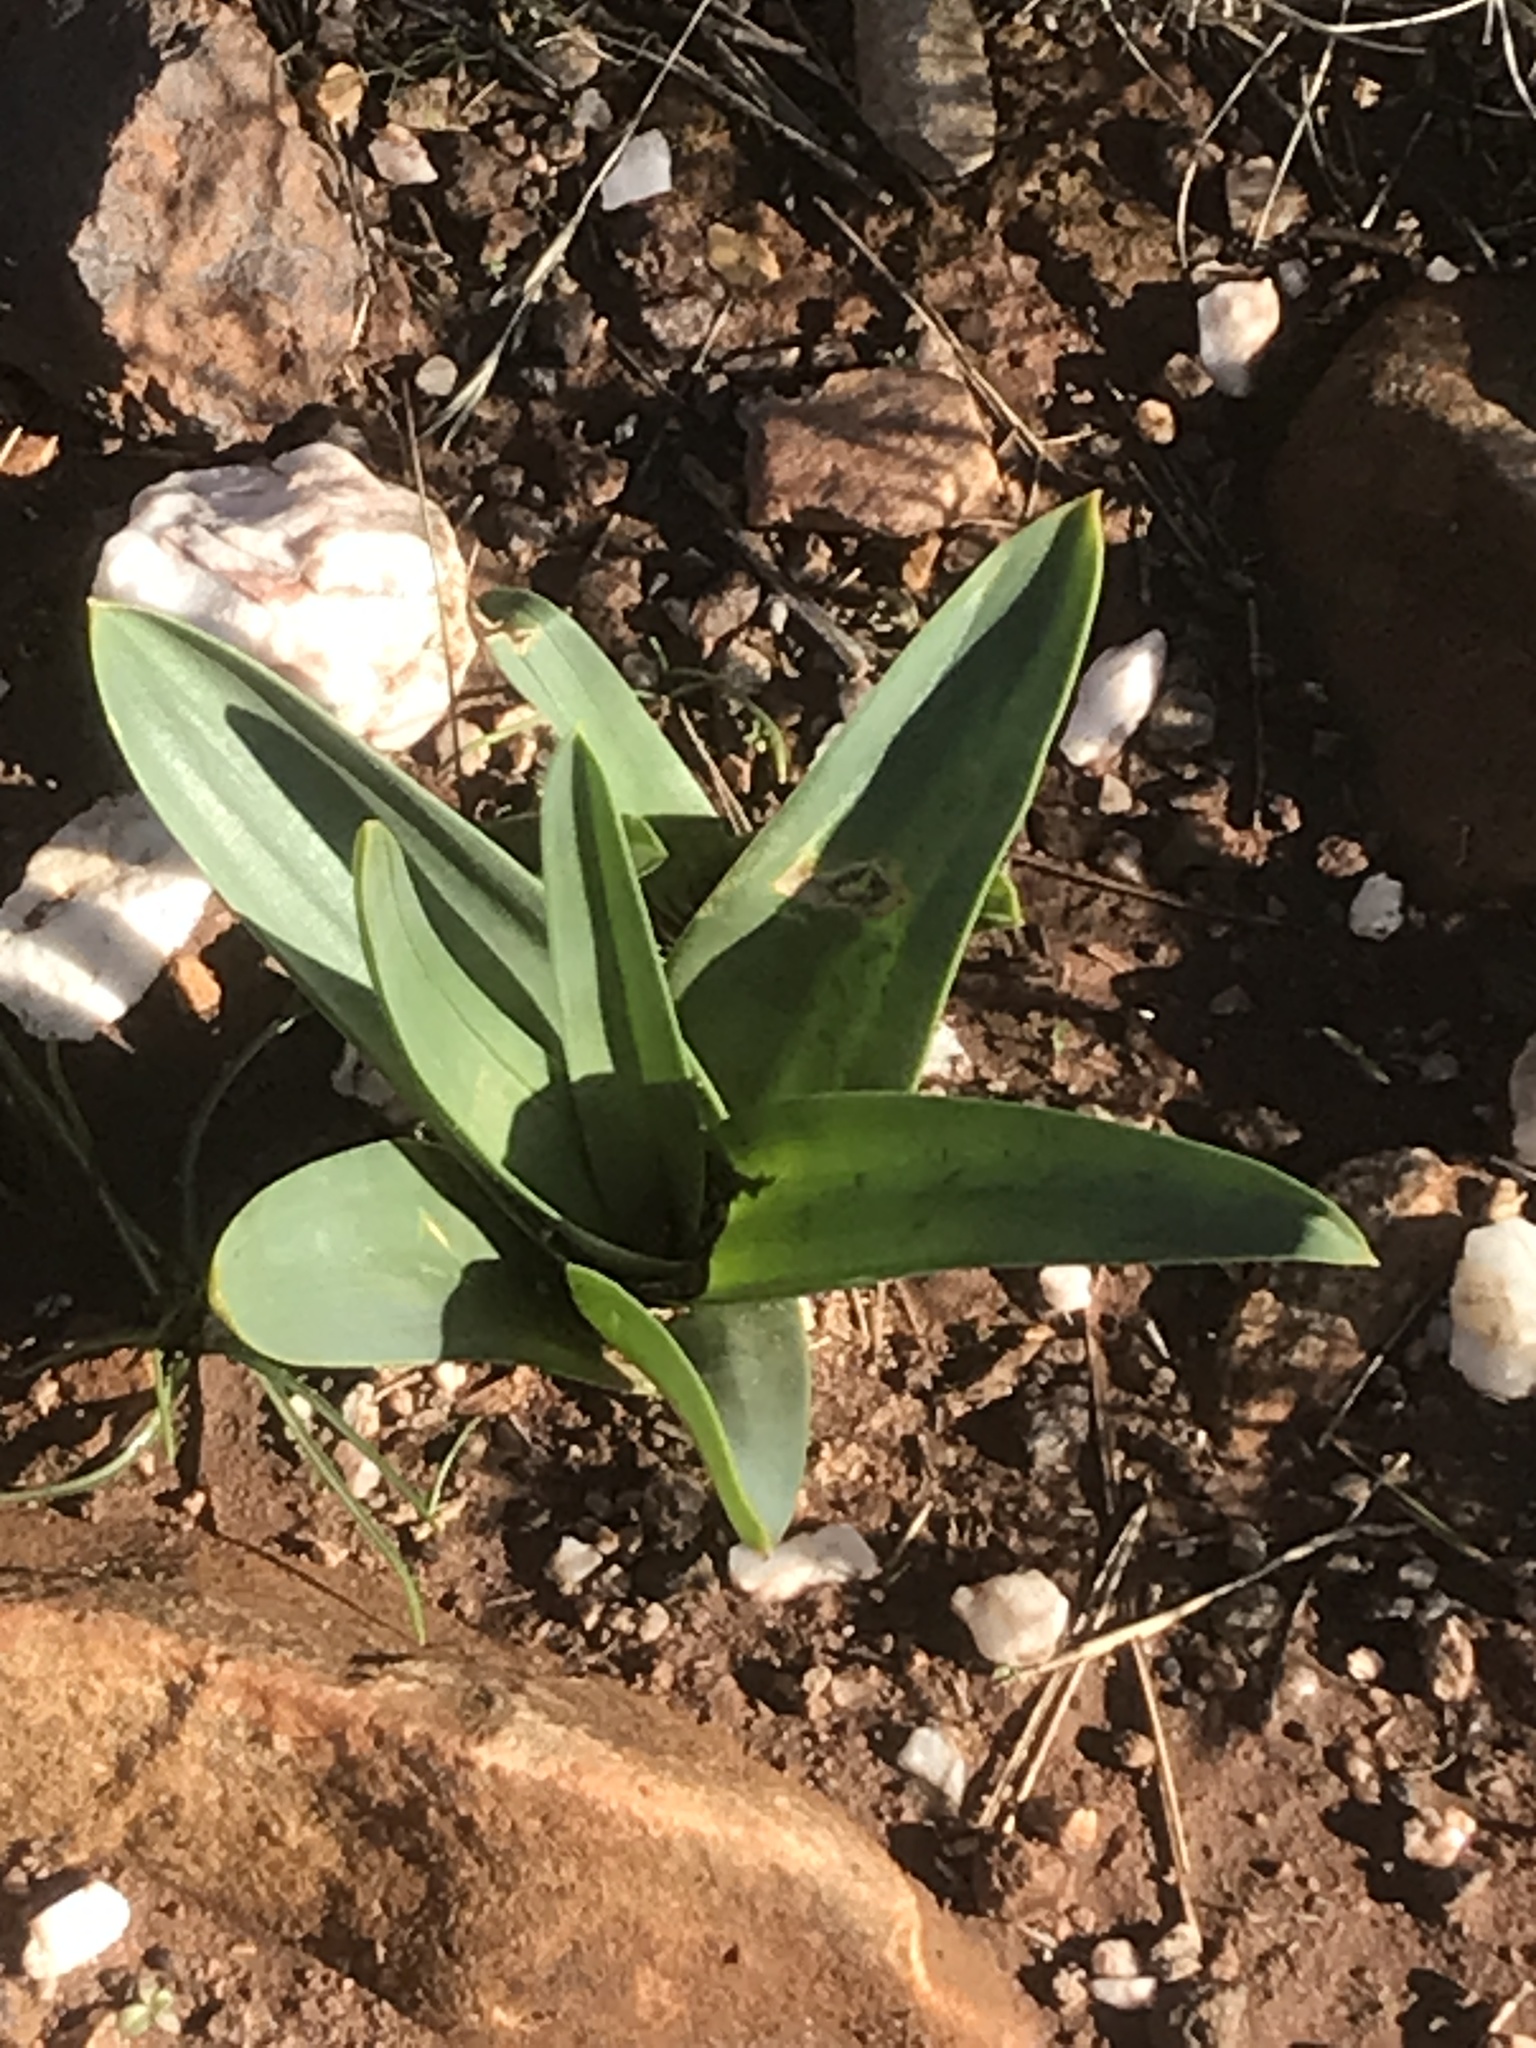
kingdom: Plantae
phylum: Tracheophyta
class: Liliopsida
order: Asparagales
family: Asparagaceae
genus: Drimia
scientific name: Drimia numidica
